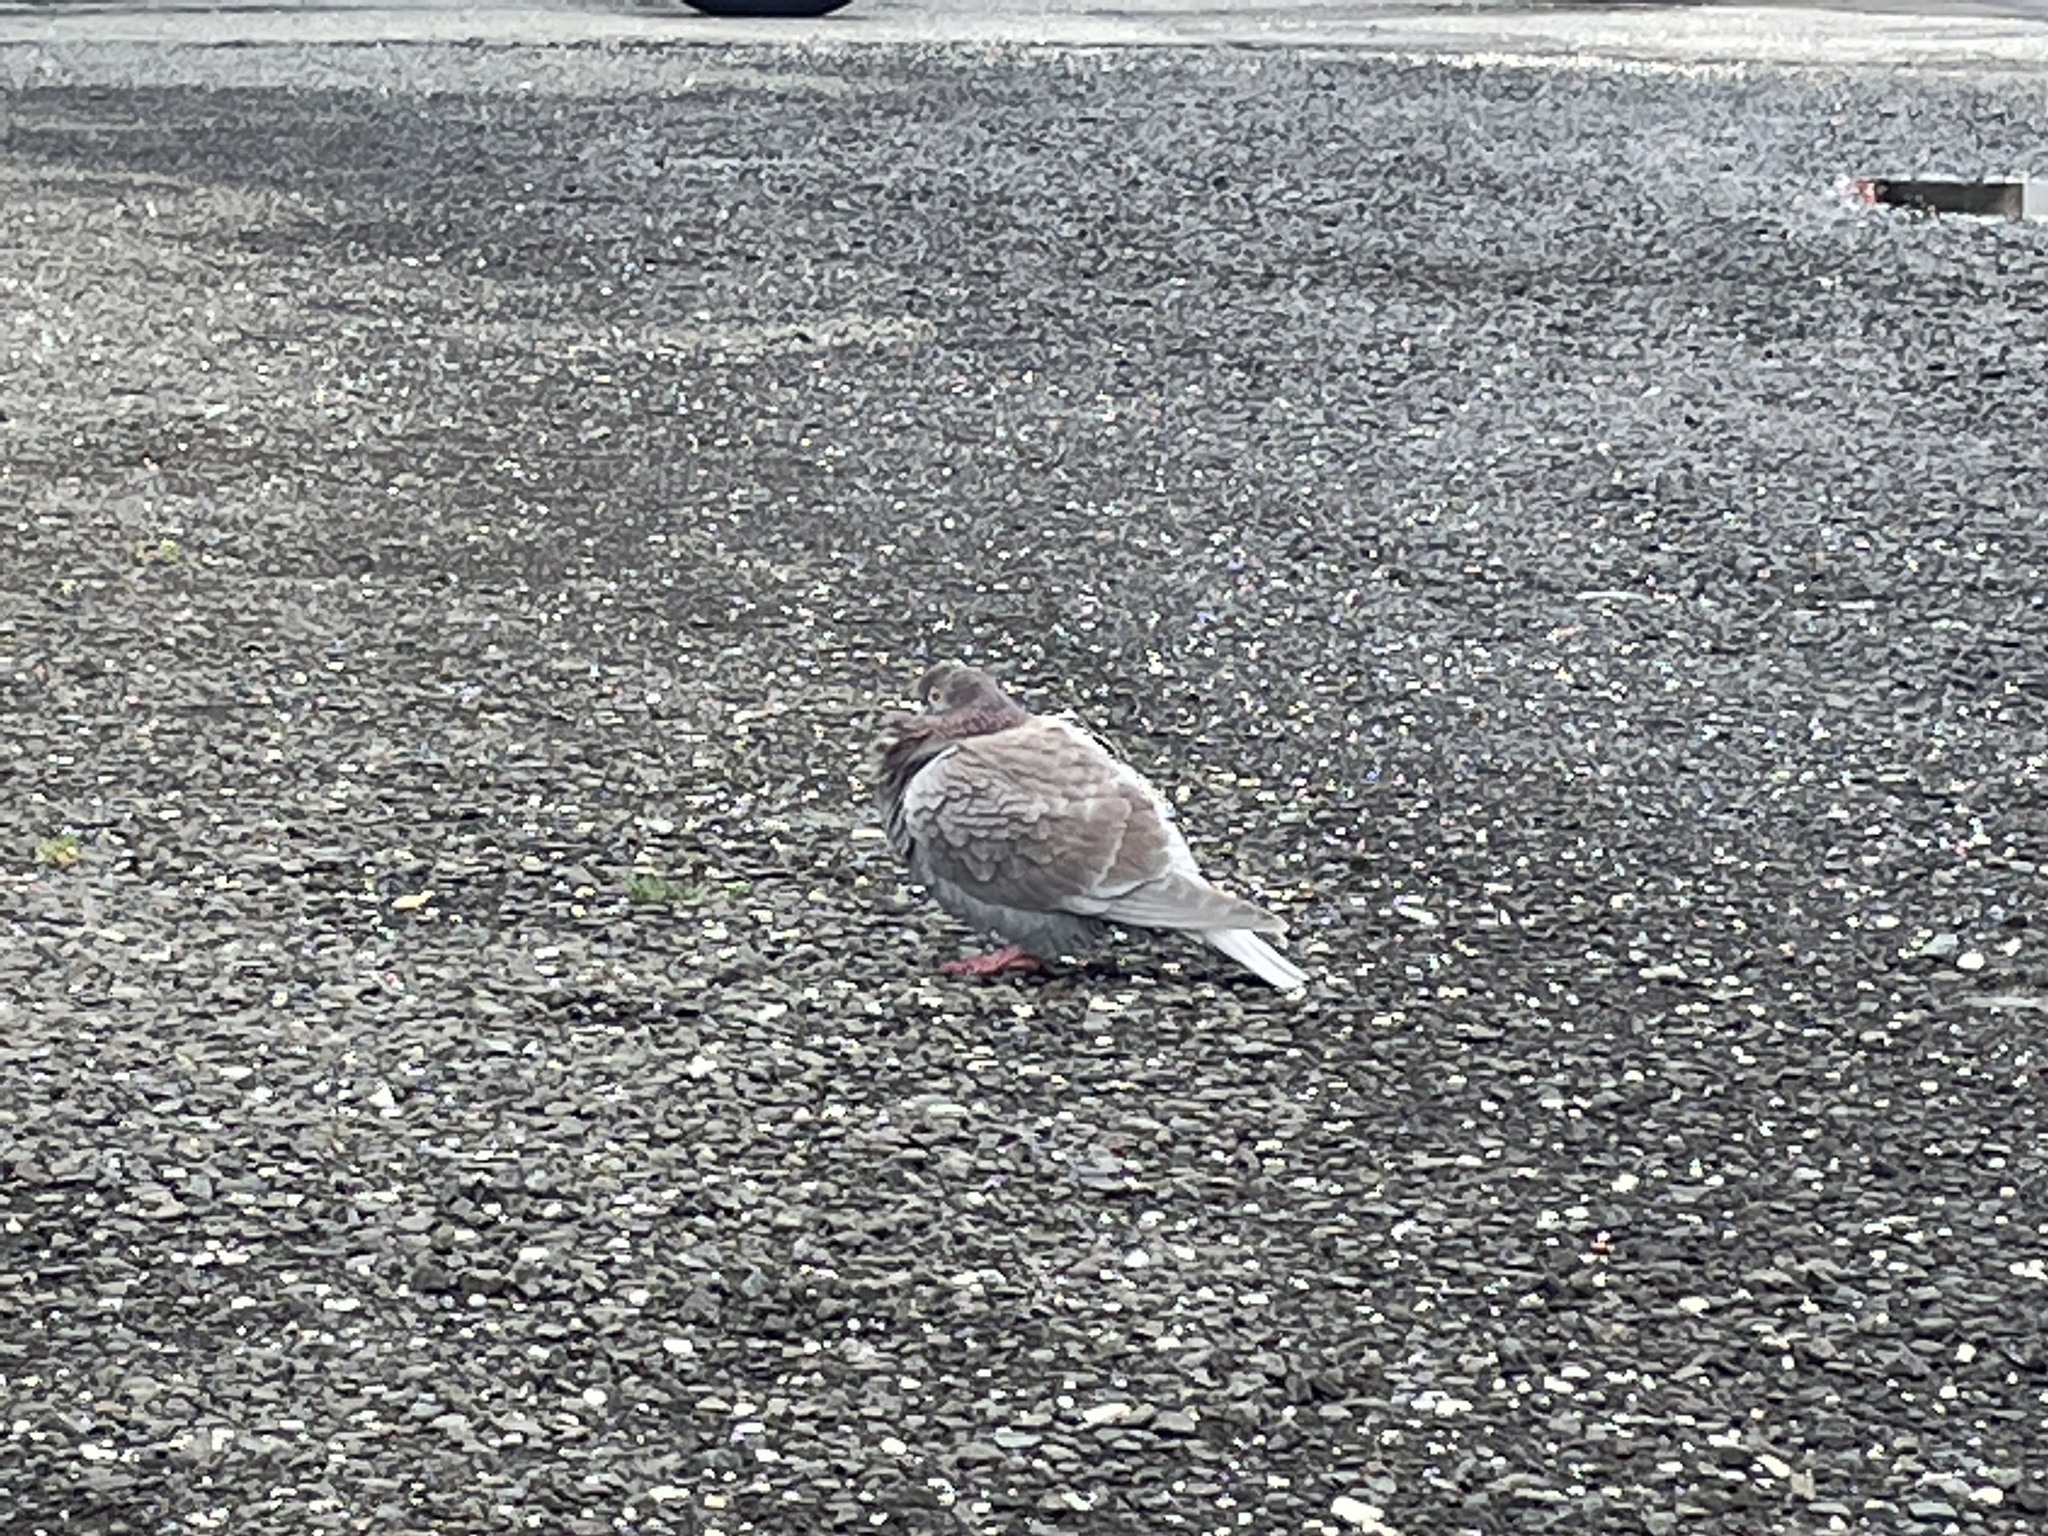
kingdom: Animalia
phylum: Chordata
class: Aves
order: Columbiformes
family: Columbidae
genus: Columba
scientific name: Columba livia
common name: Rock pigeon
